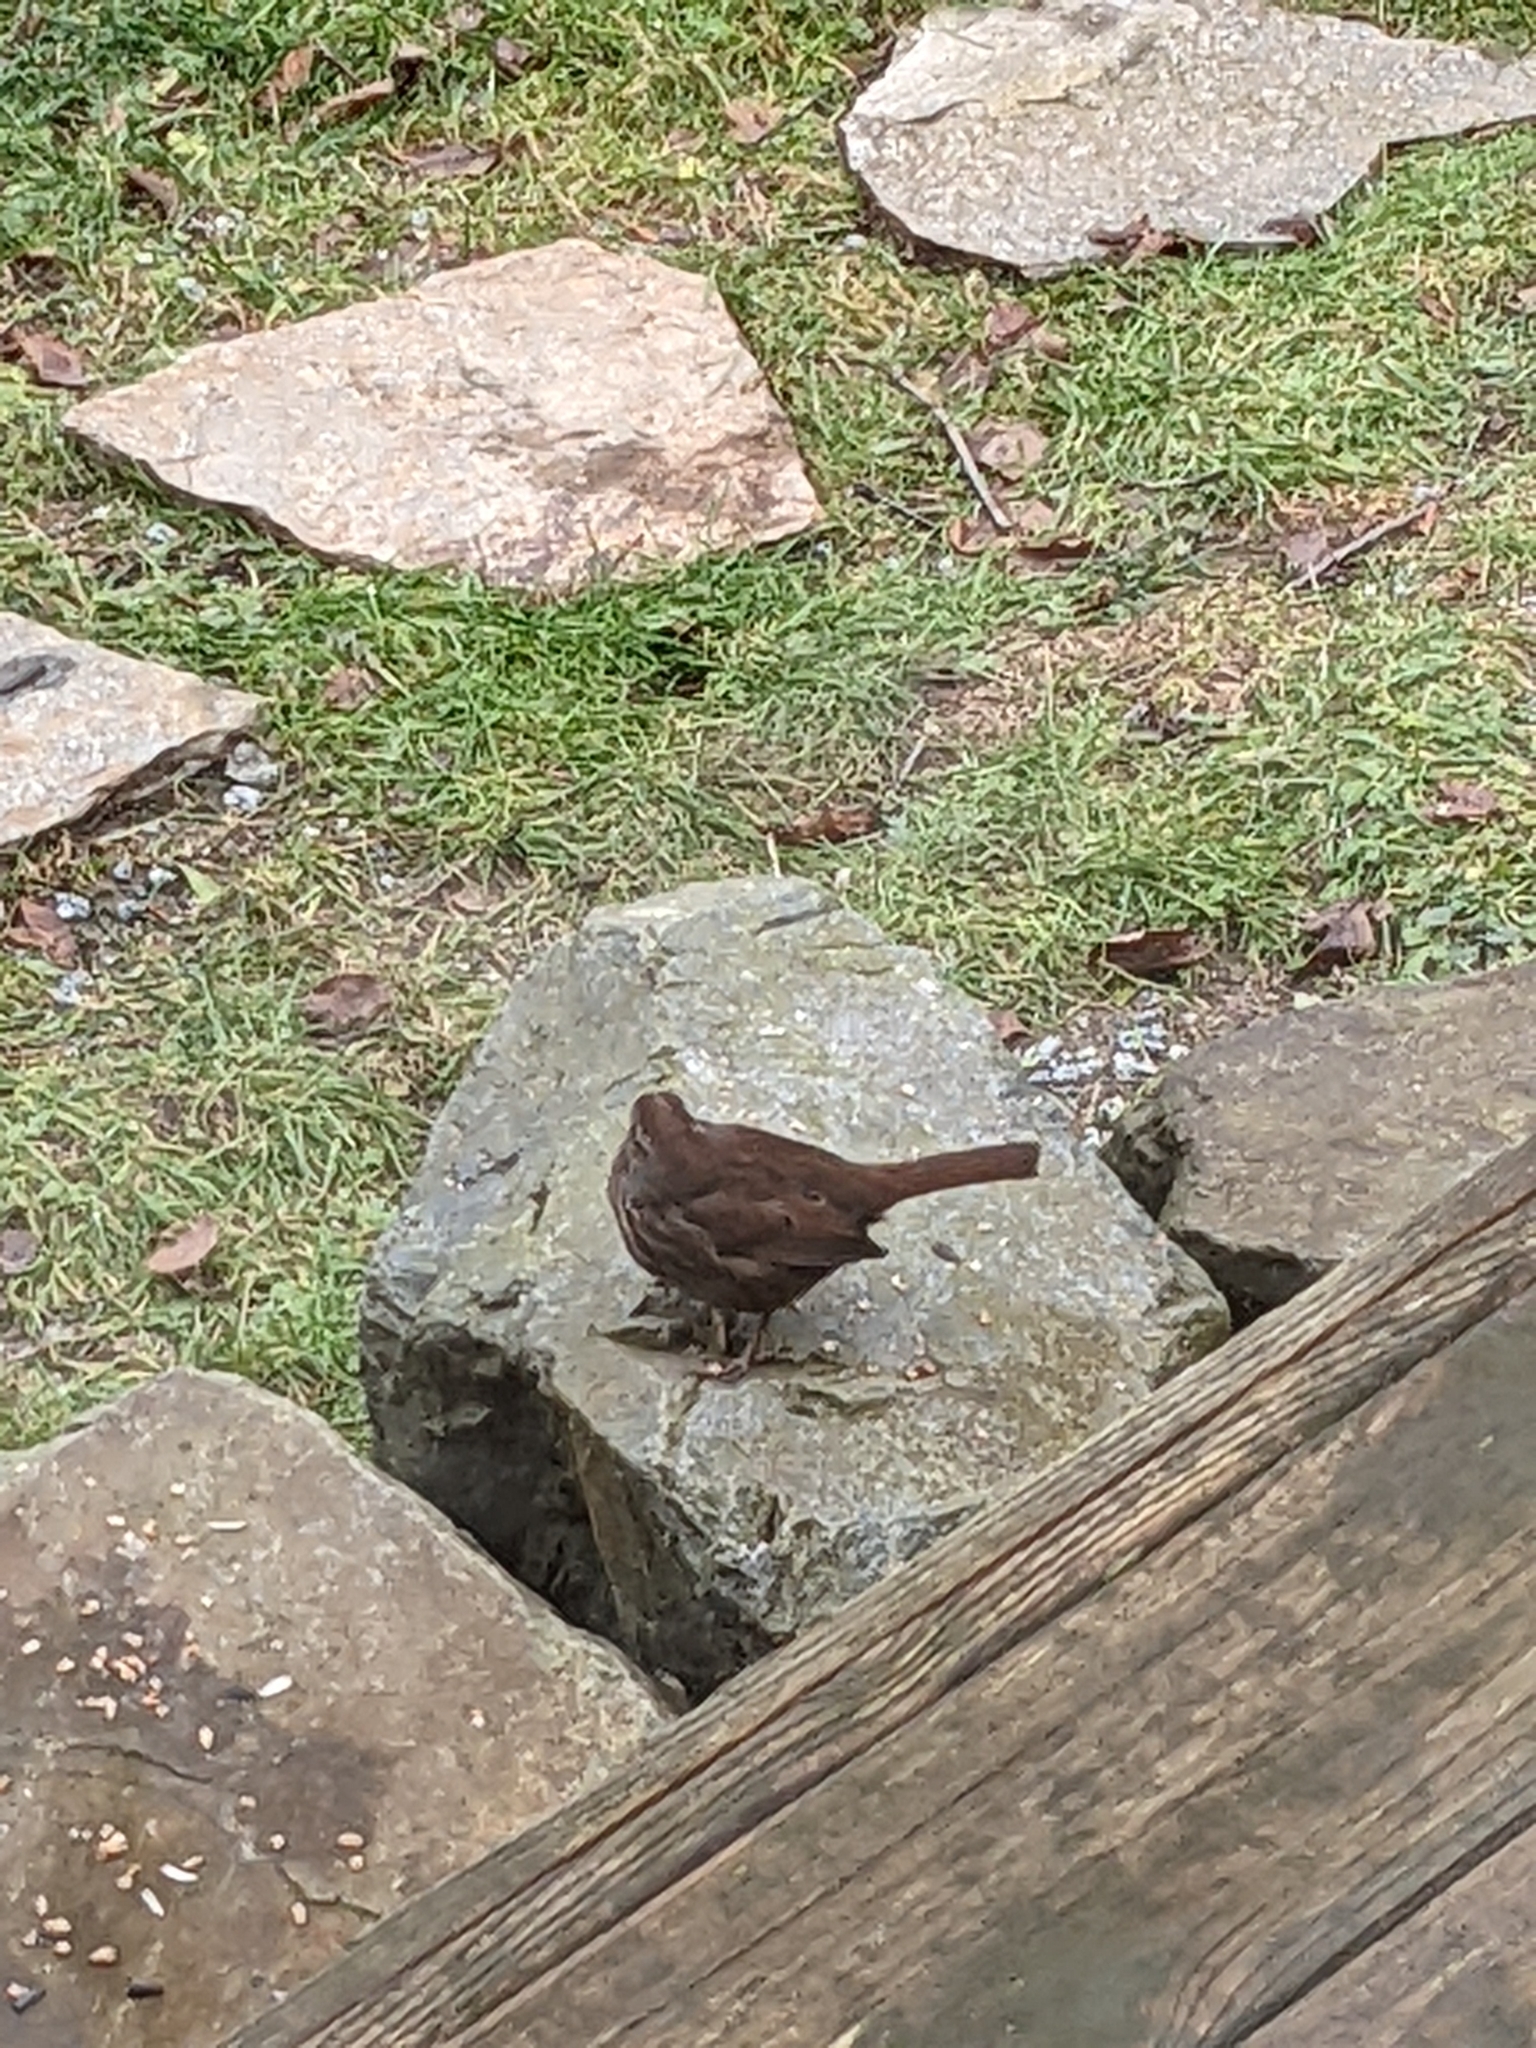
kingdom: Animalia
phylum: Chordata
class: Aves
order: Passeriformes
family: Passerellidae
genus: Melospiza
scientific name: Melospiza melodia
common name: Song sparrow
